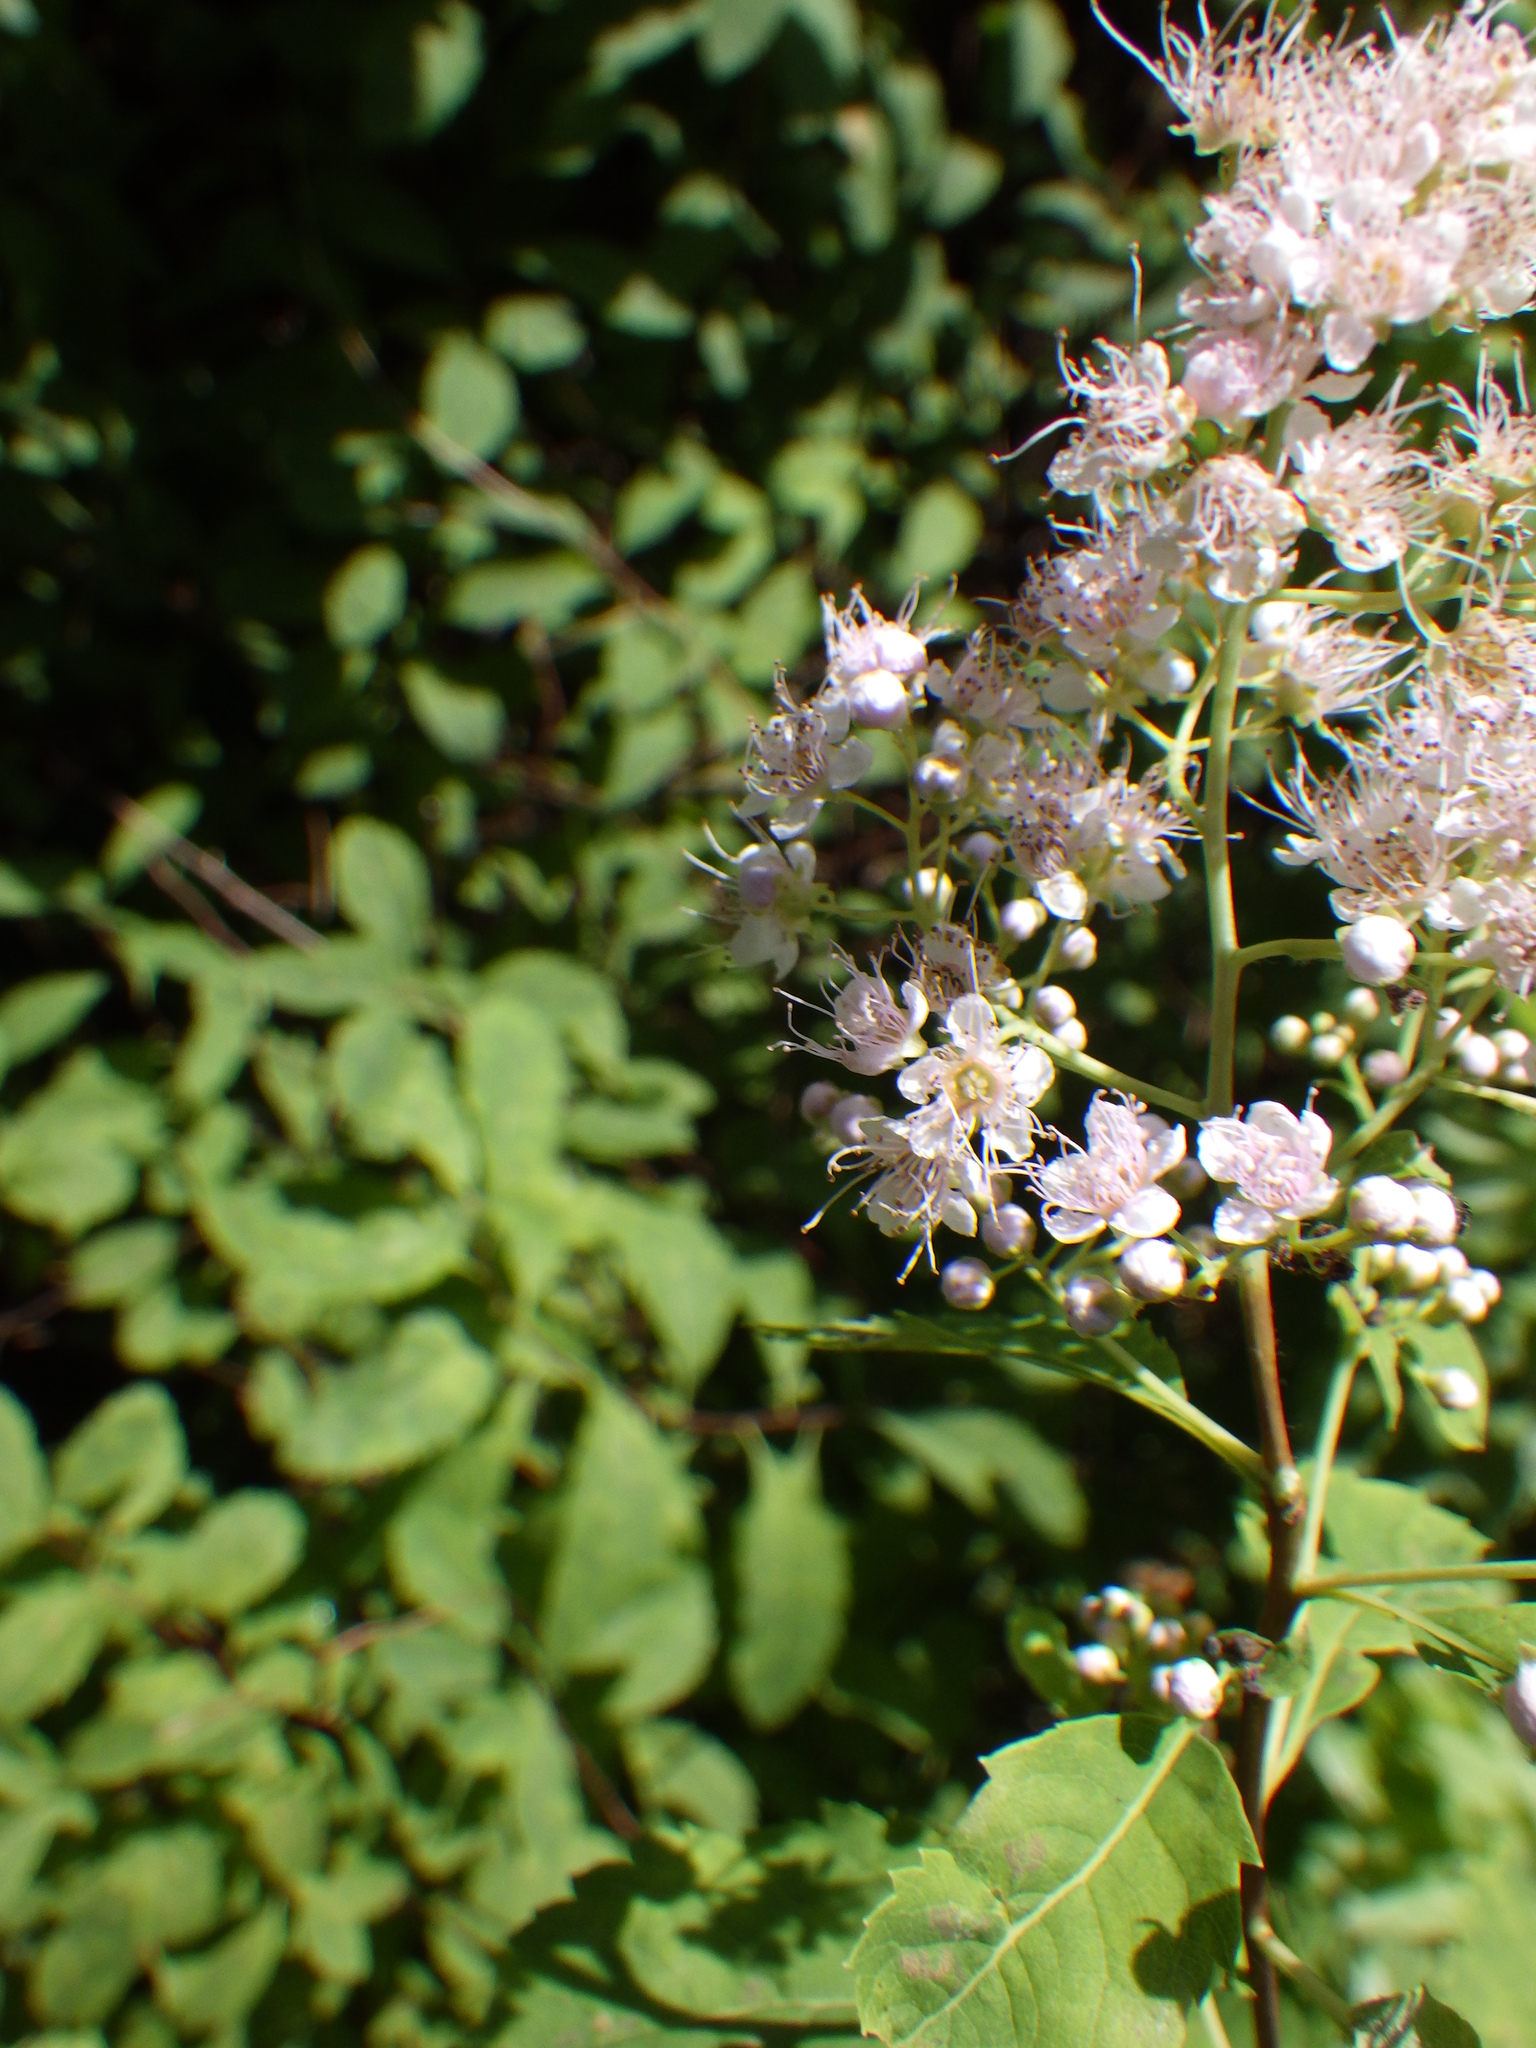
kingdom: Plantae
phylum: Tracheophyta
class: Magnoliopsida
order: Rosales
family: Rosaceae
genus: Spiraea
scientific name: Spiraea alba
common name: Pale bridewort
